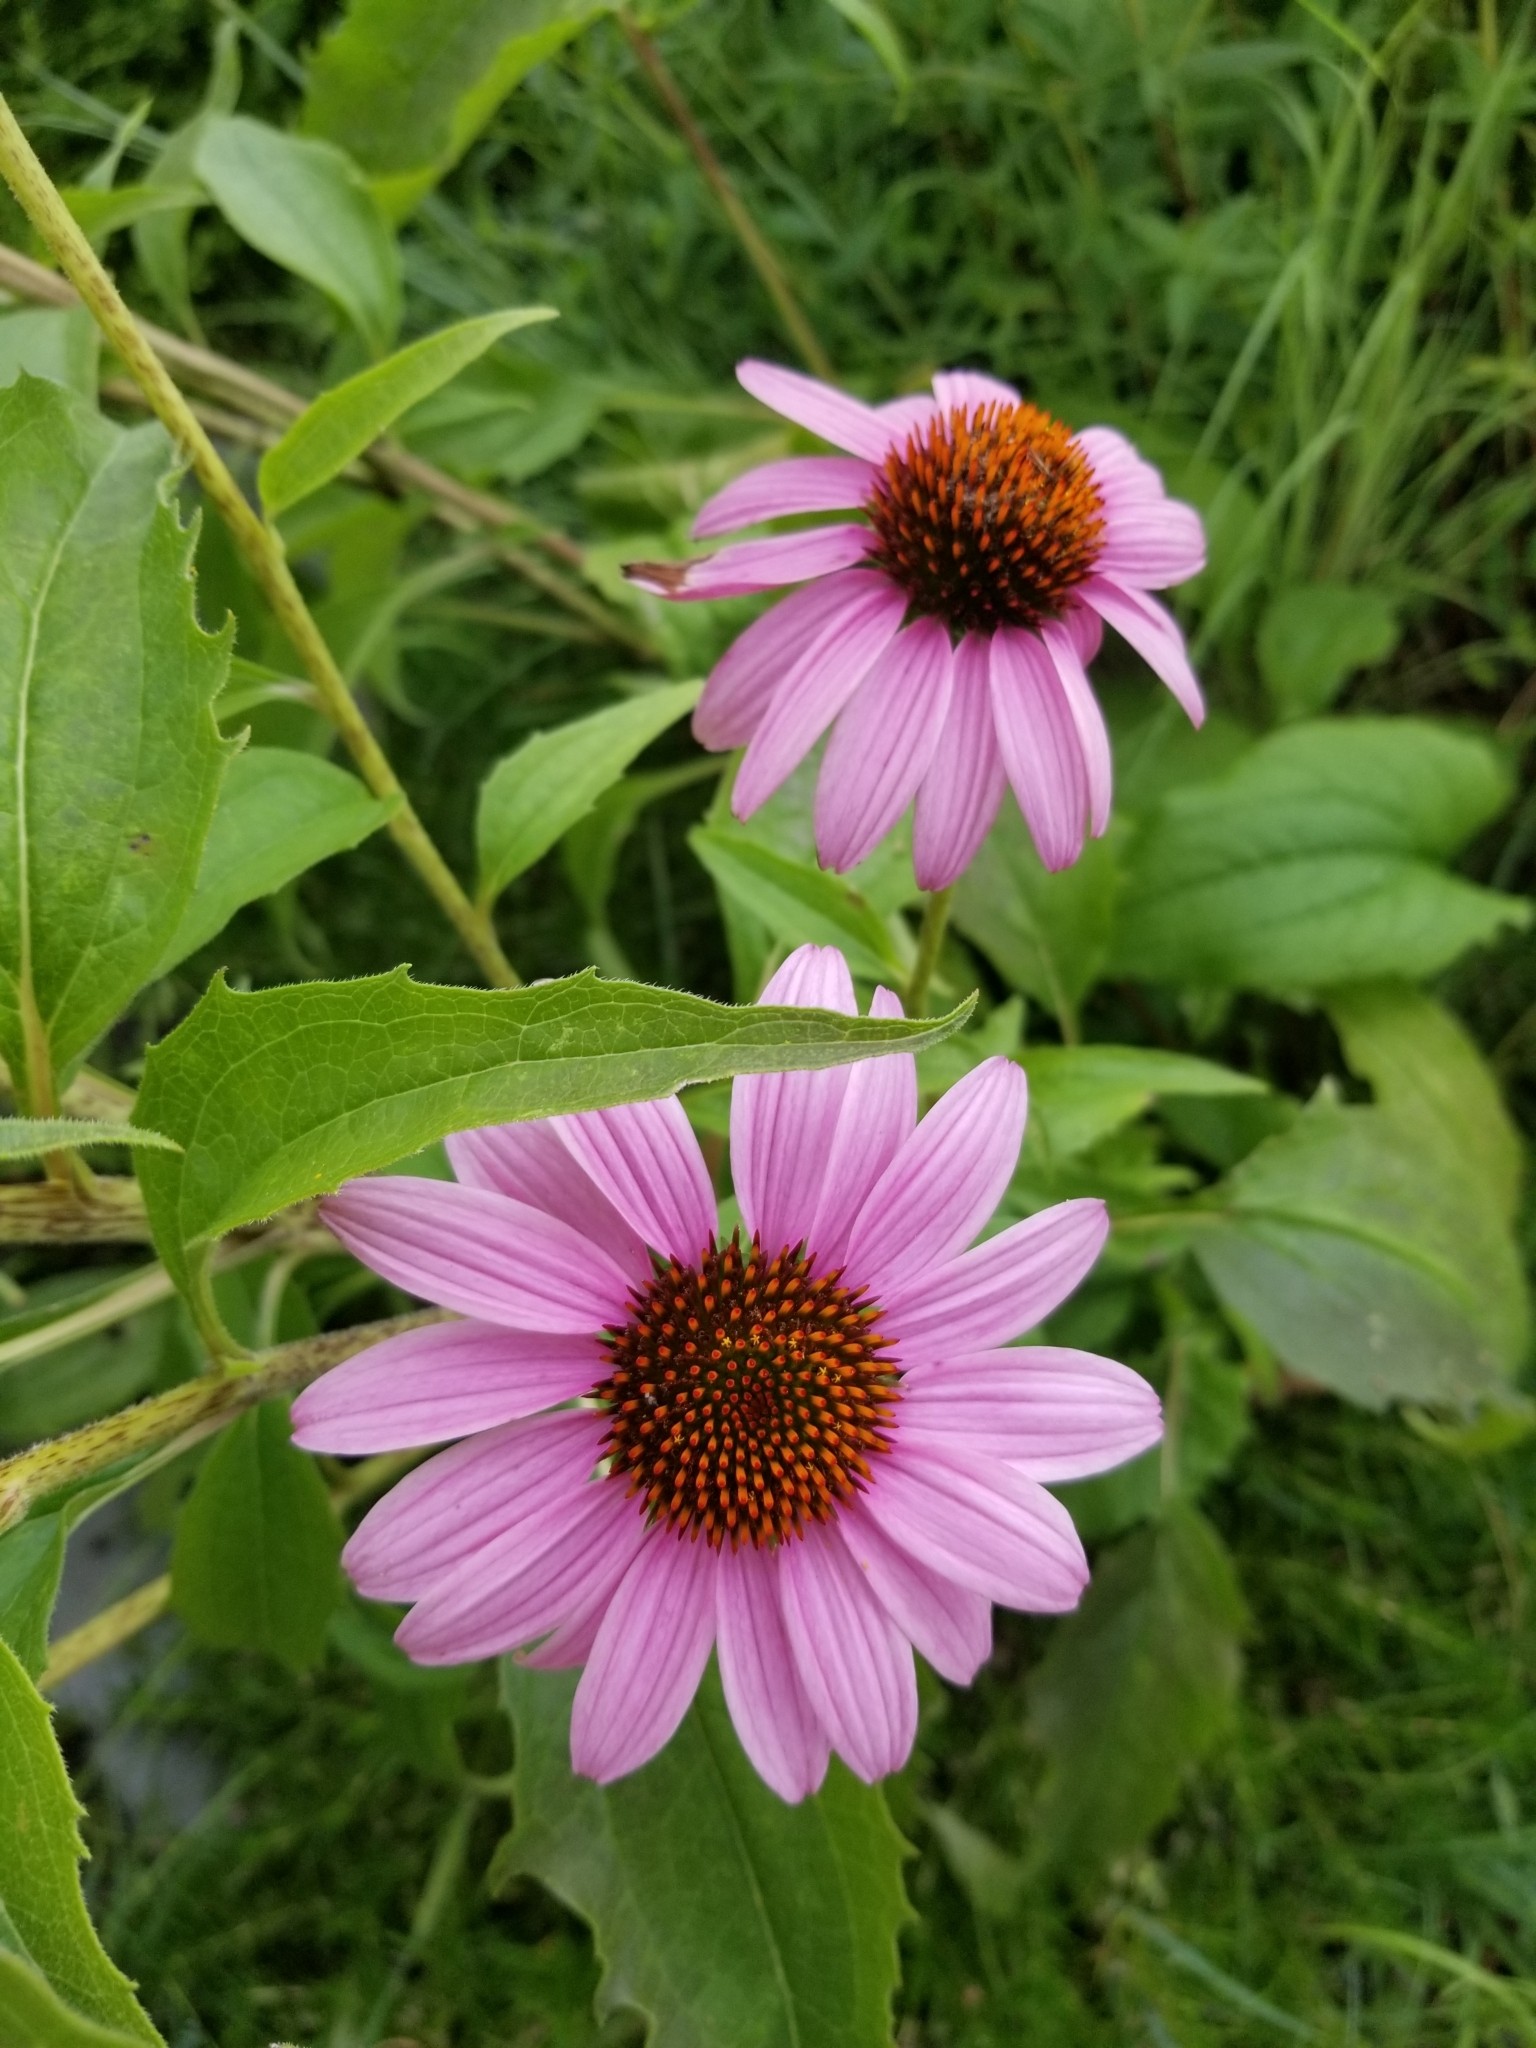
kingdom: Plantae
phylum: Tracheophyta
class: Magnoliopsida
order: Asterales
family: Asteraceae
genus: Echinacea
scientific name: Echinacea purpurea
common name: Broad-leaved purple coneflower
